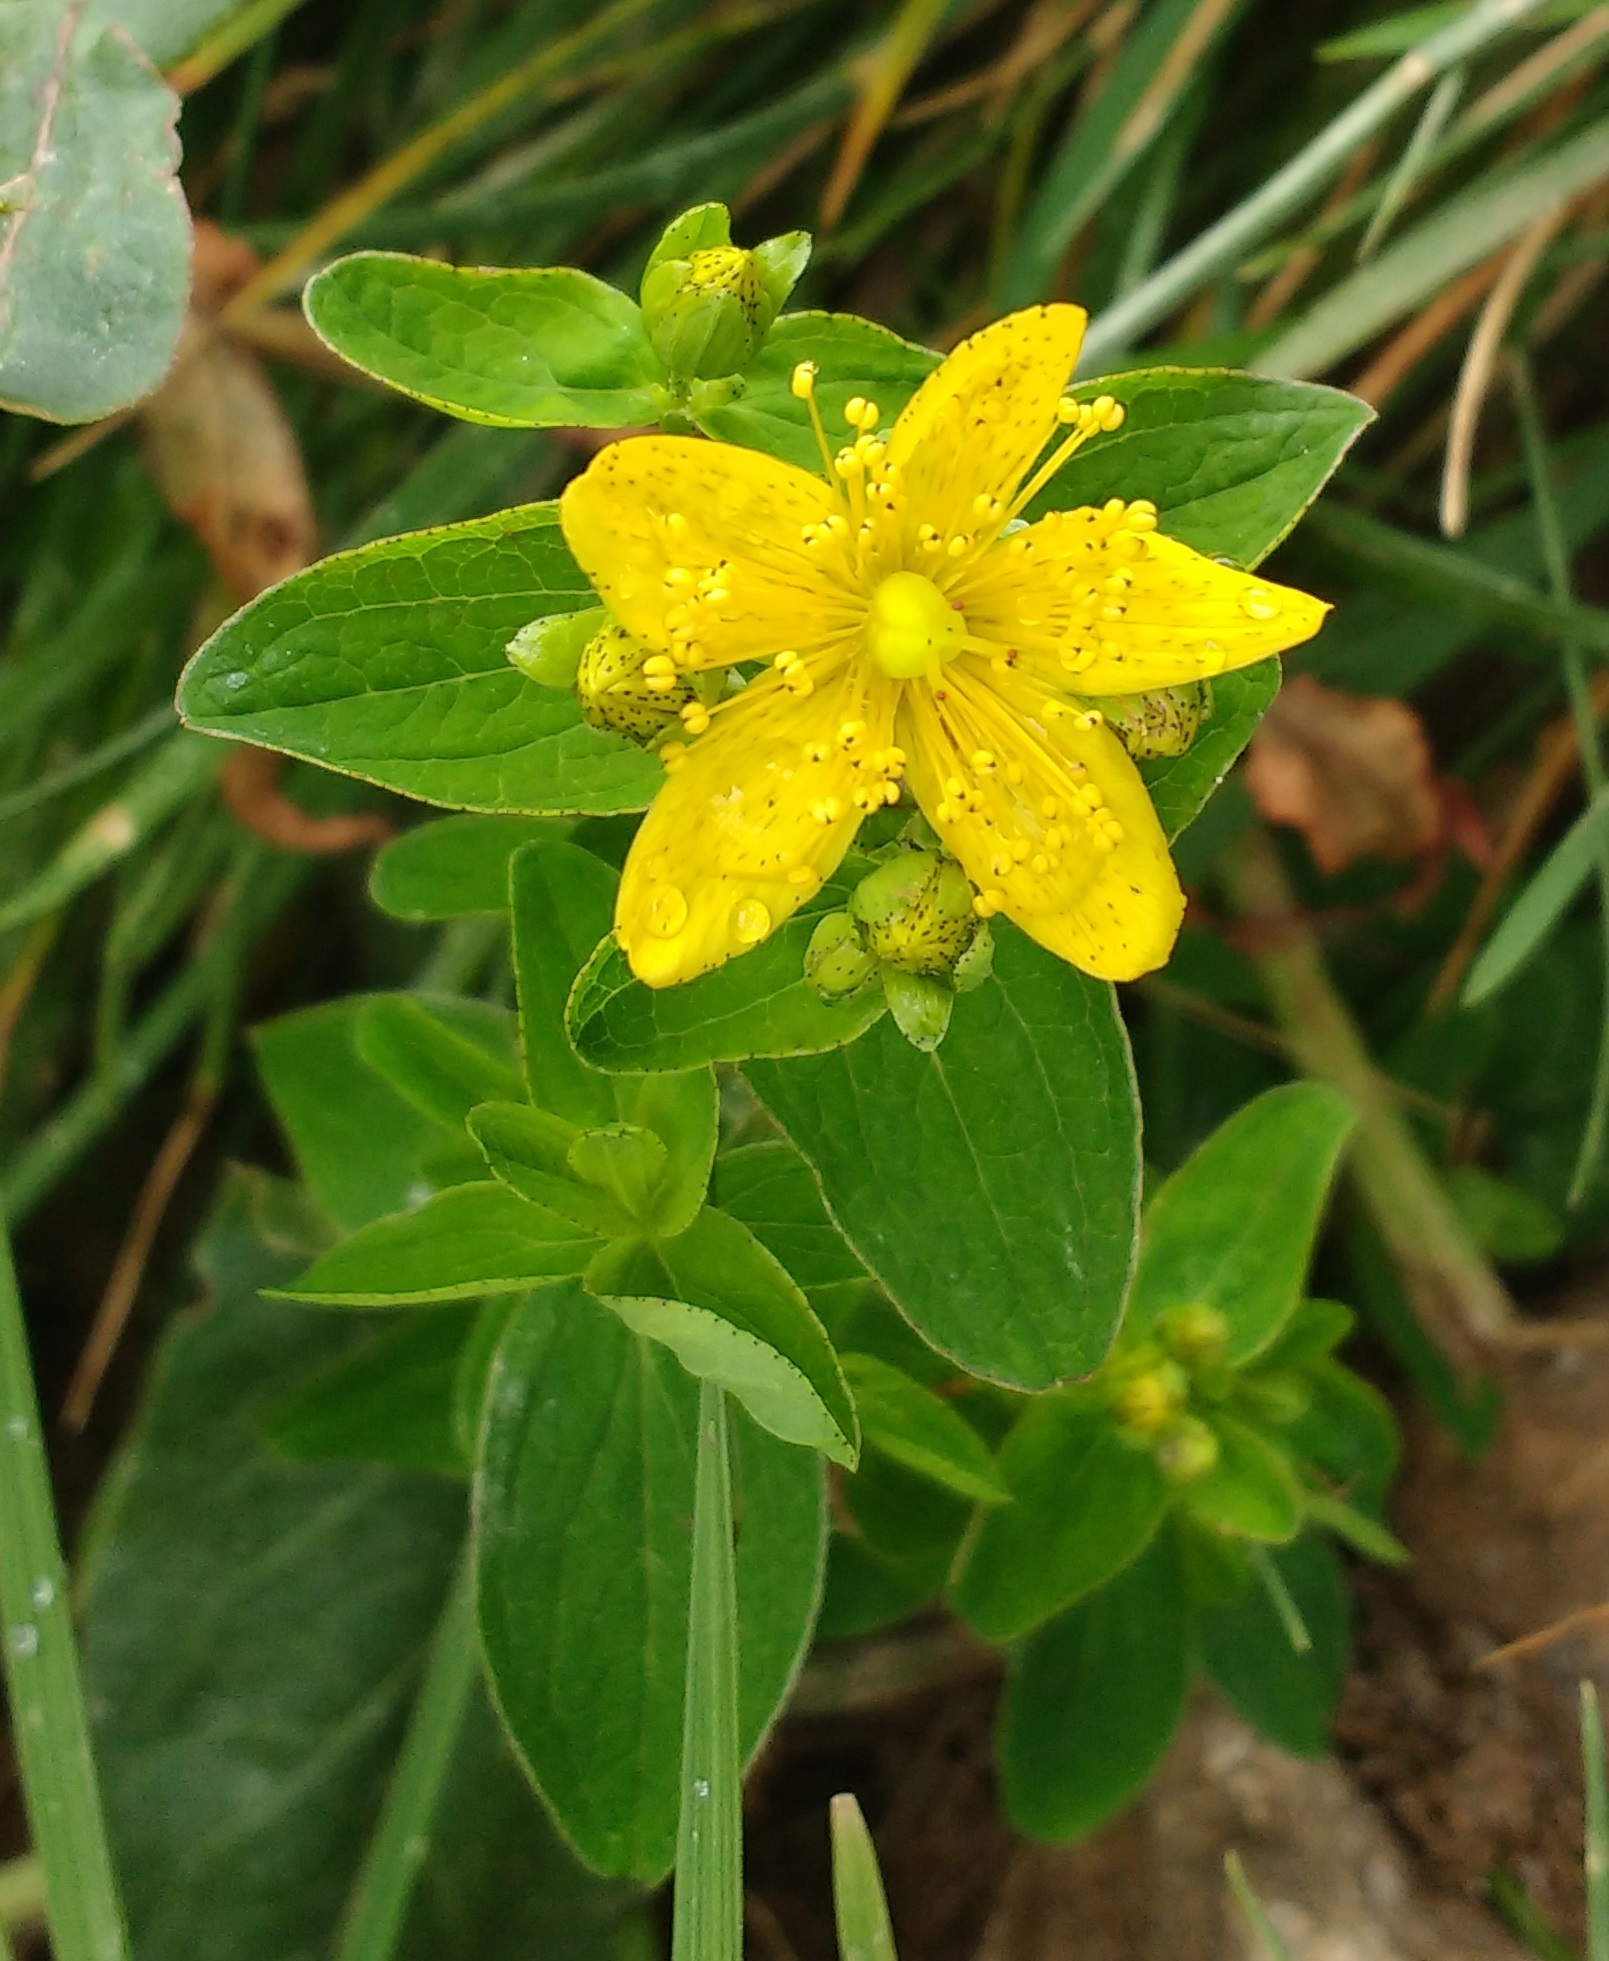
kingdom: Plantae
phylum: Tracheophyta
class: Magnoliopsida
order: Malpighiales
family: Hypericaceae
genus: Hypericum
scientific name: Hypericum maculatum
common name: Imperforate st. john's-wort
